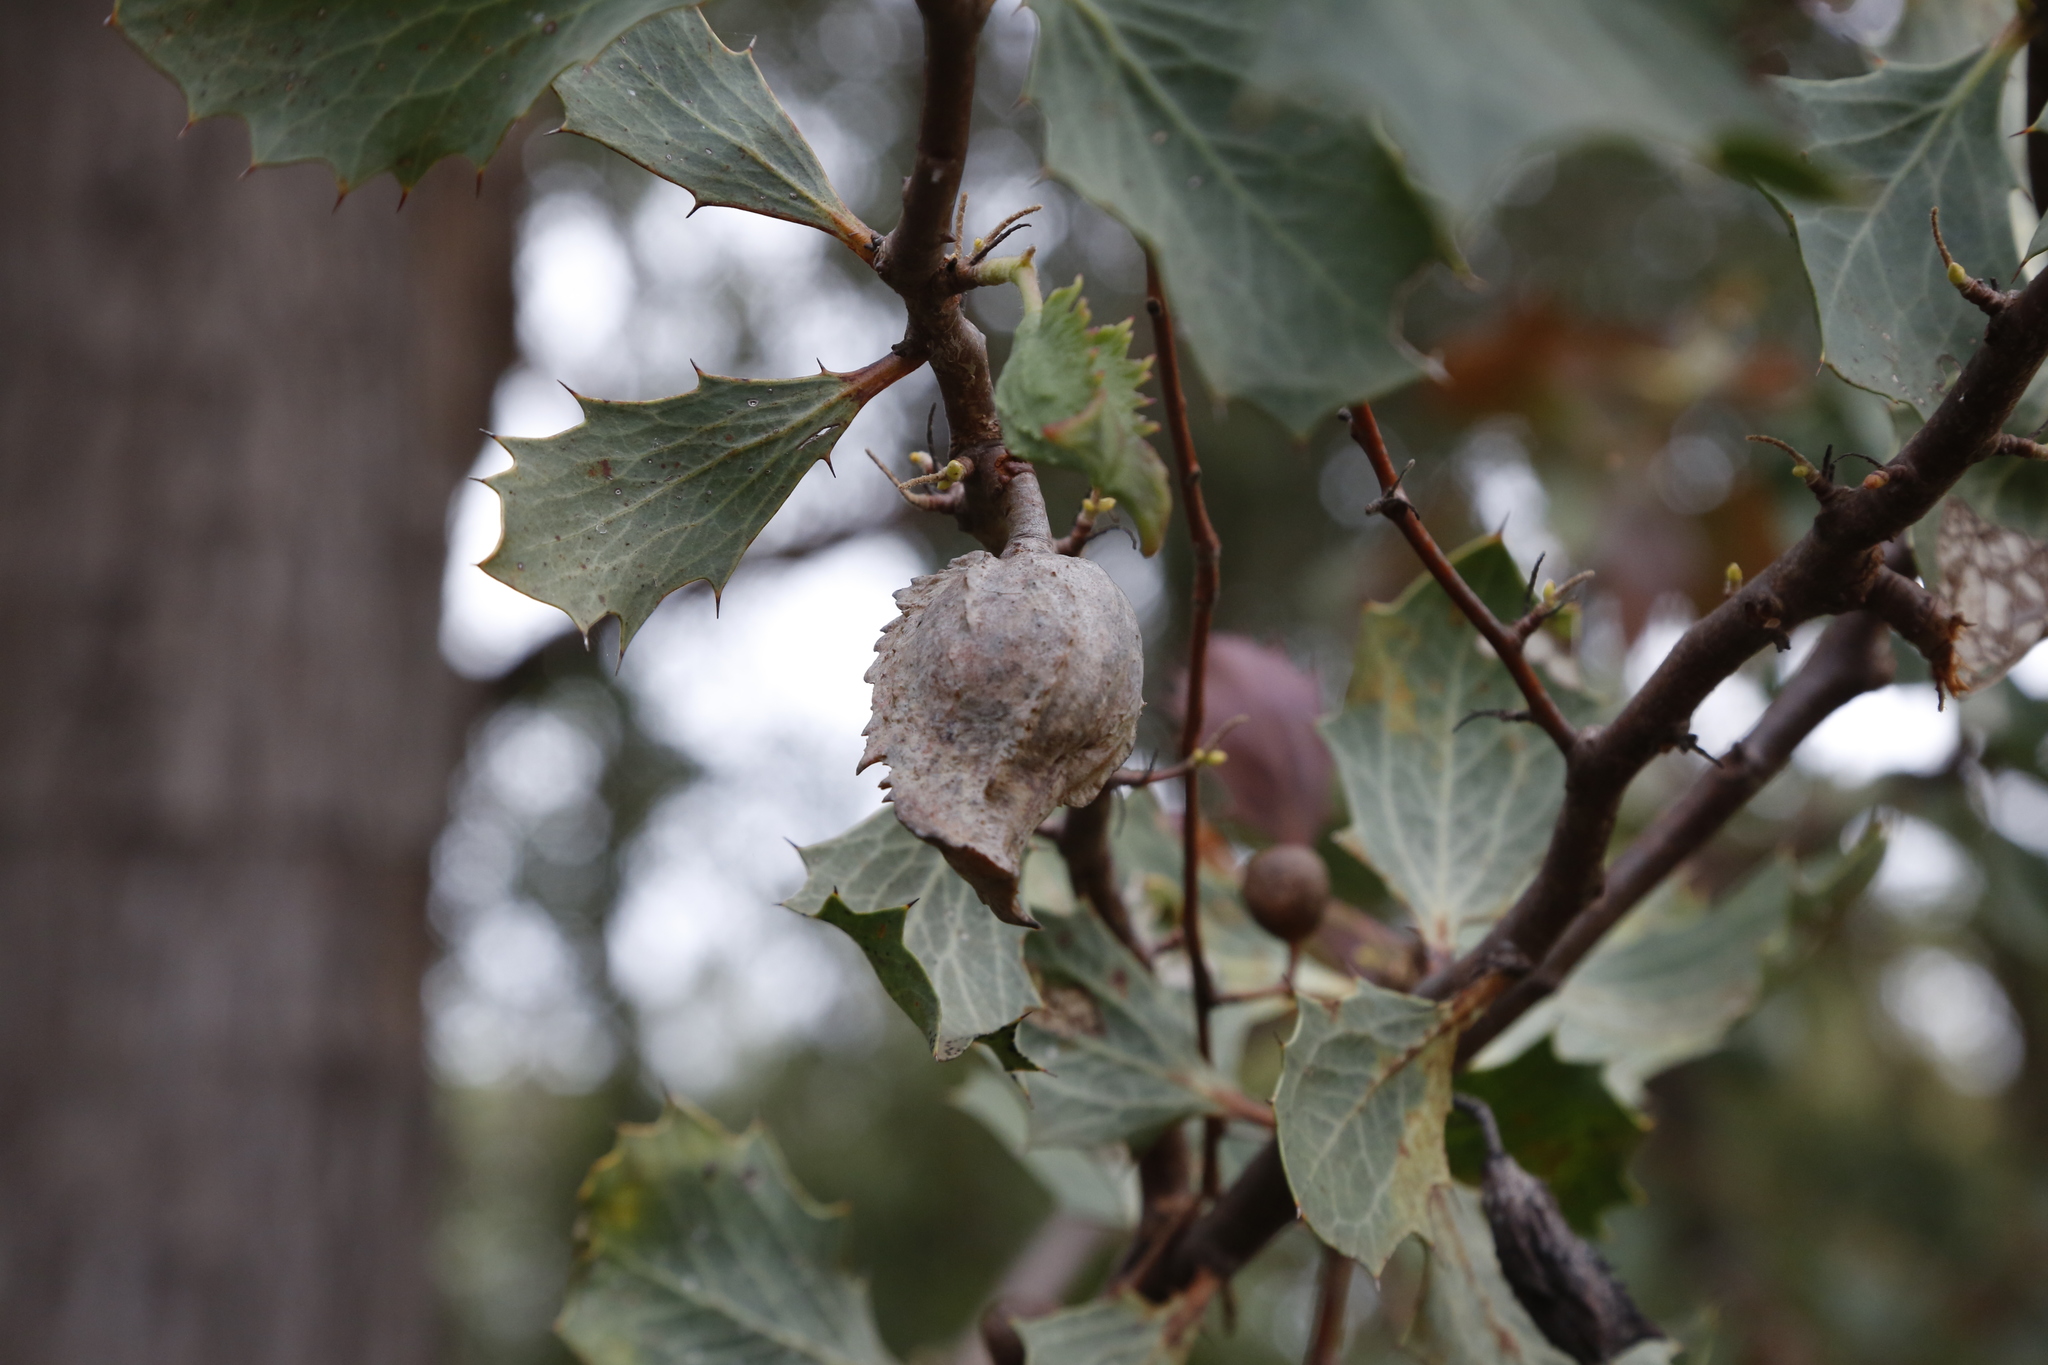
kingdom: Plantae
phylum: Tracheophyta
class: Magnoliopsida
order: Proteales
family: Proteaceae
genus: Hakea
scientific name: Hakea cristata
